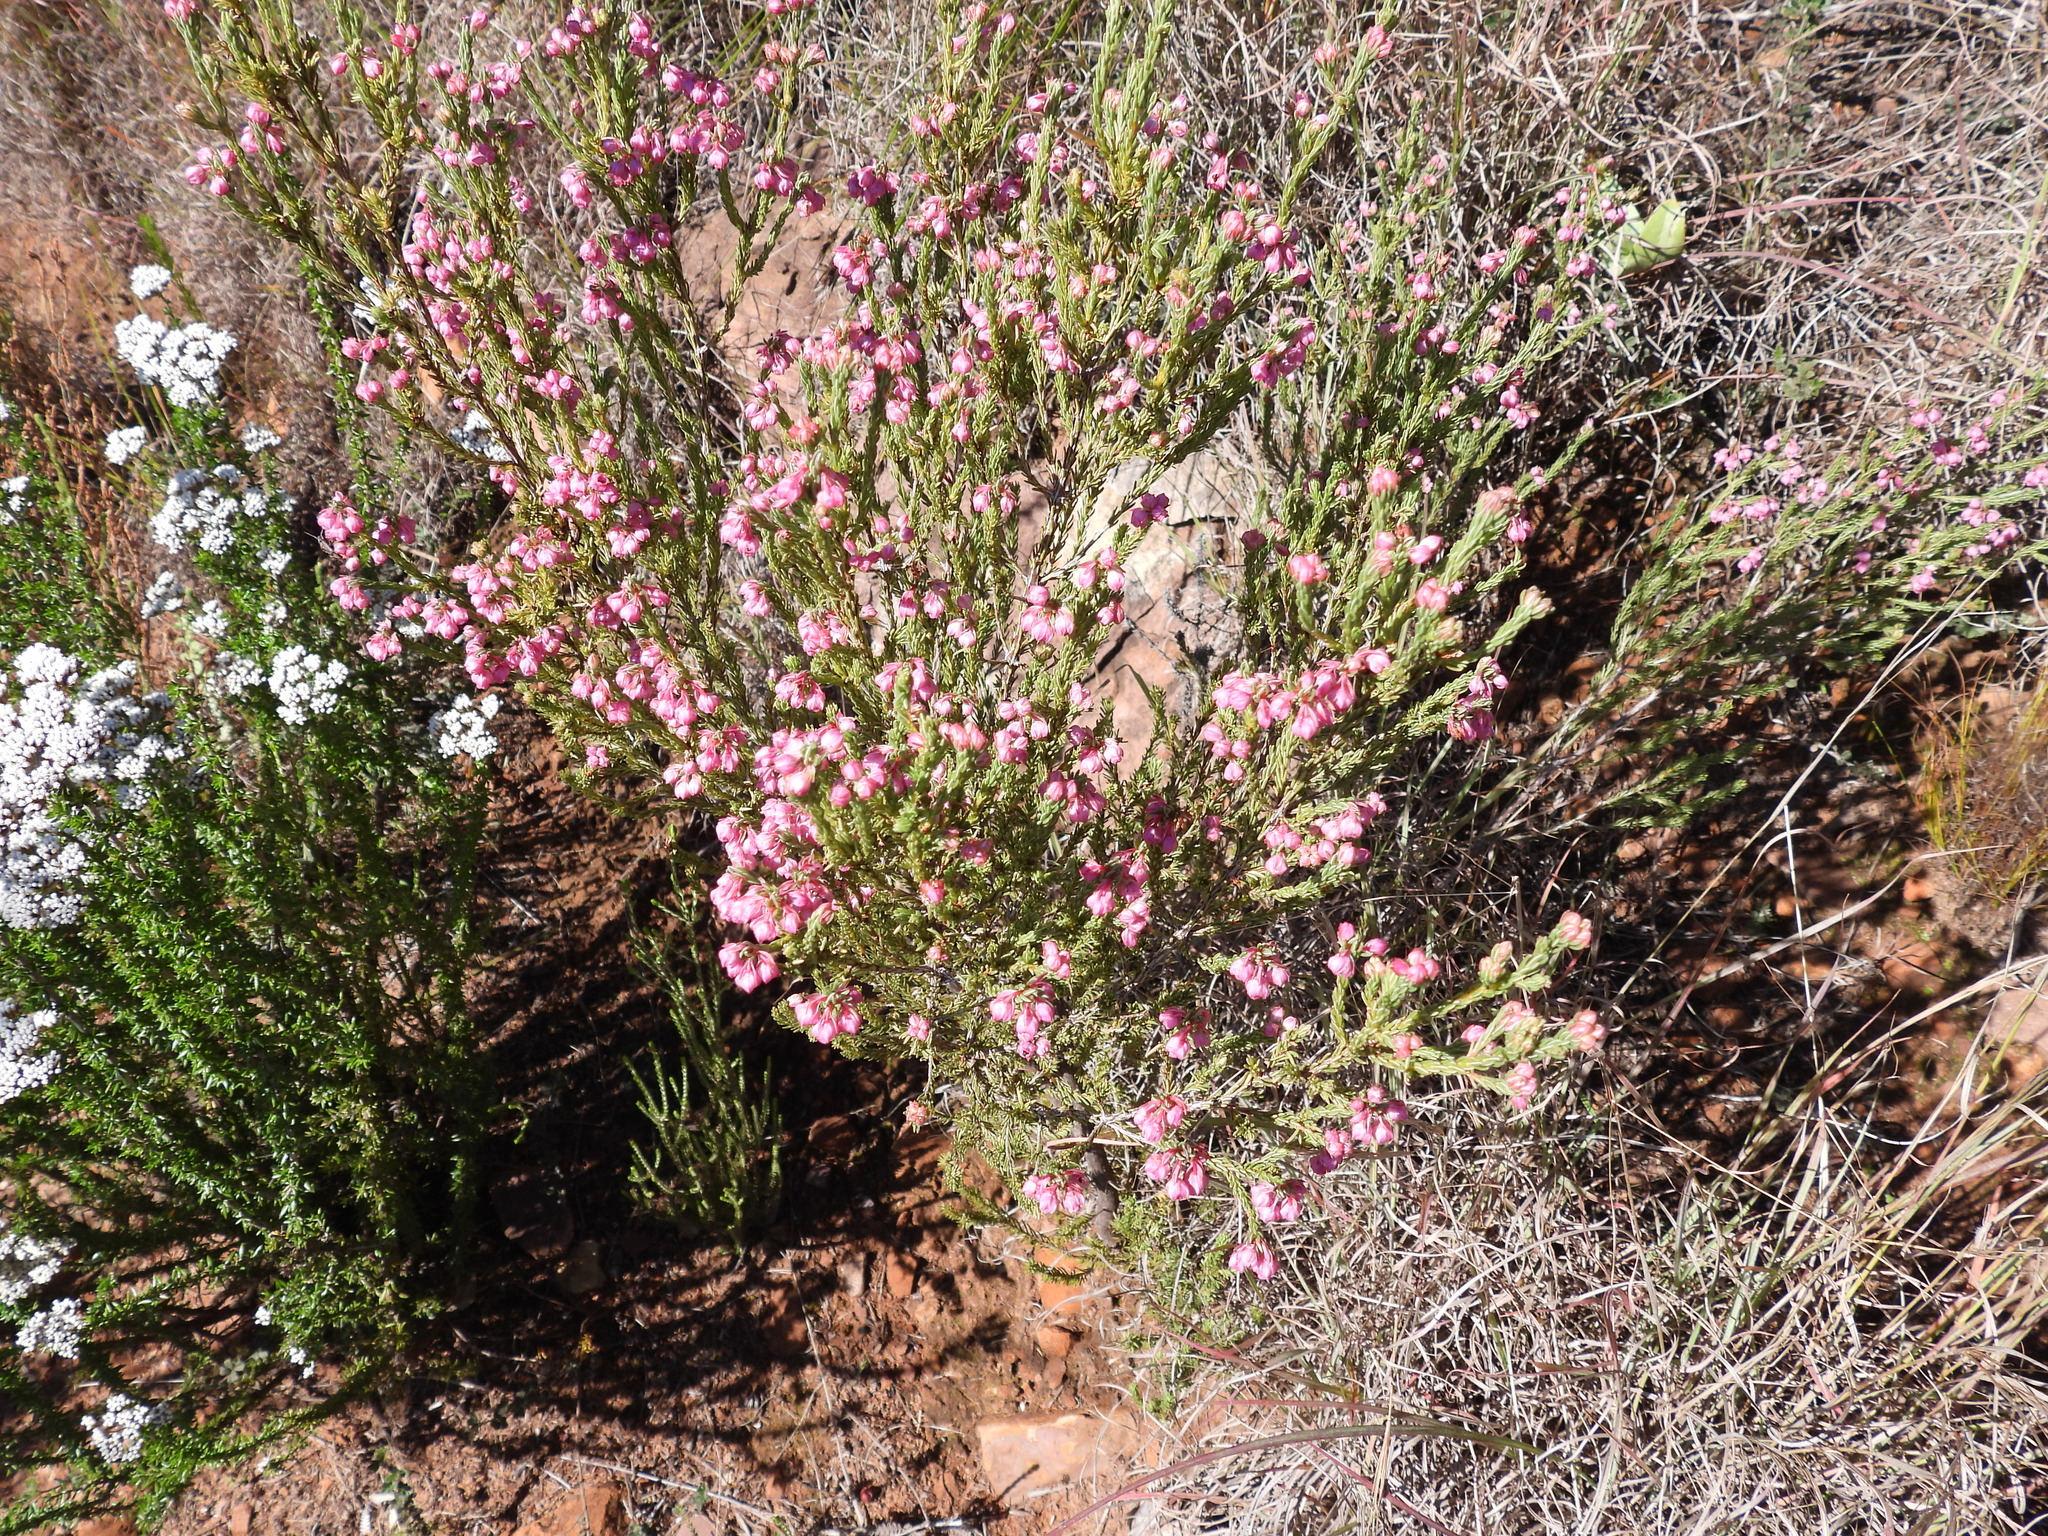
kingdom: Plantae
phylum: Tracheophyta
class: Magnoliopsida
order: Ericales
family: Ericaceae
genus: Erica
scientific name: Erica baccans
